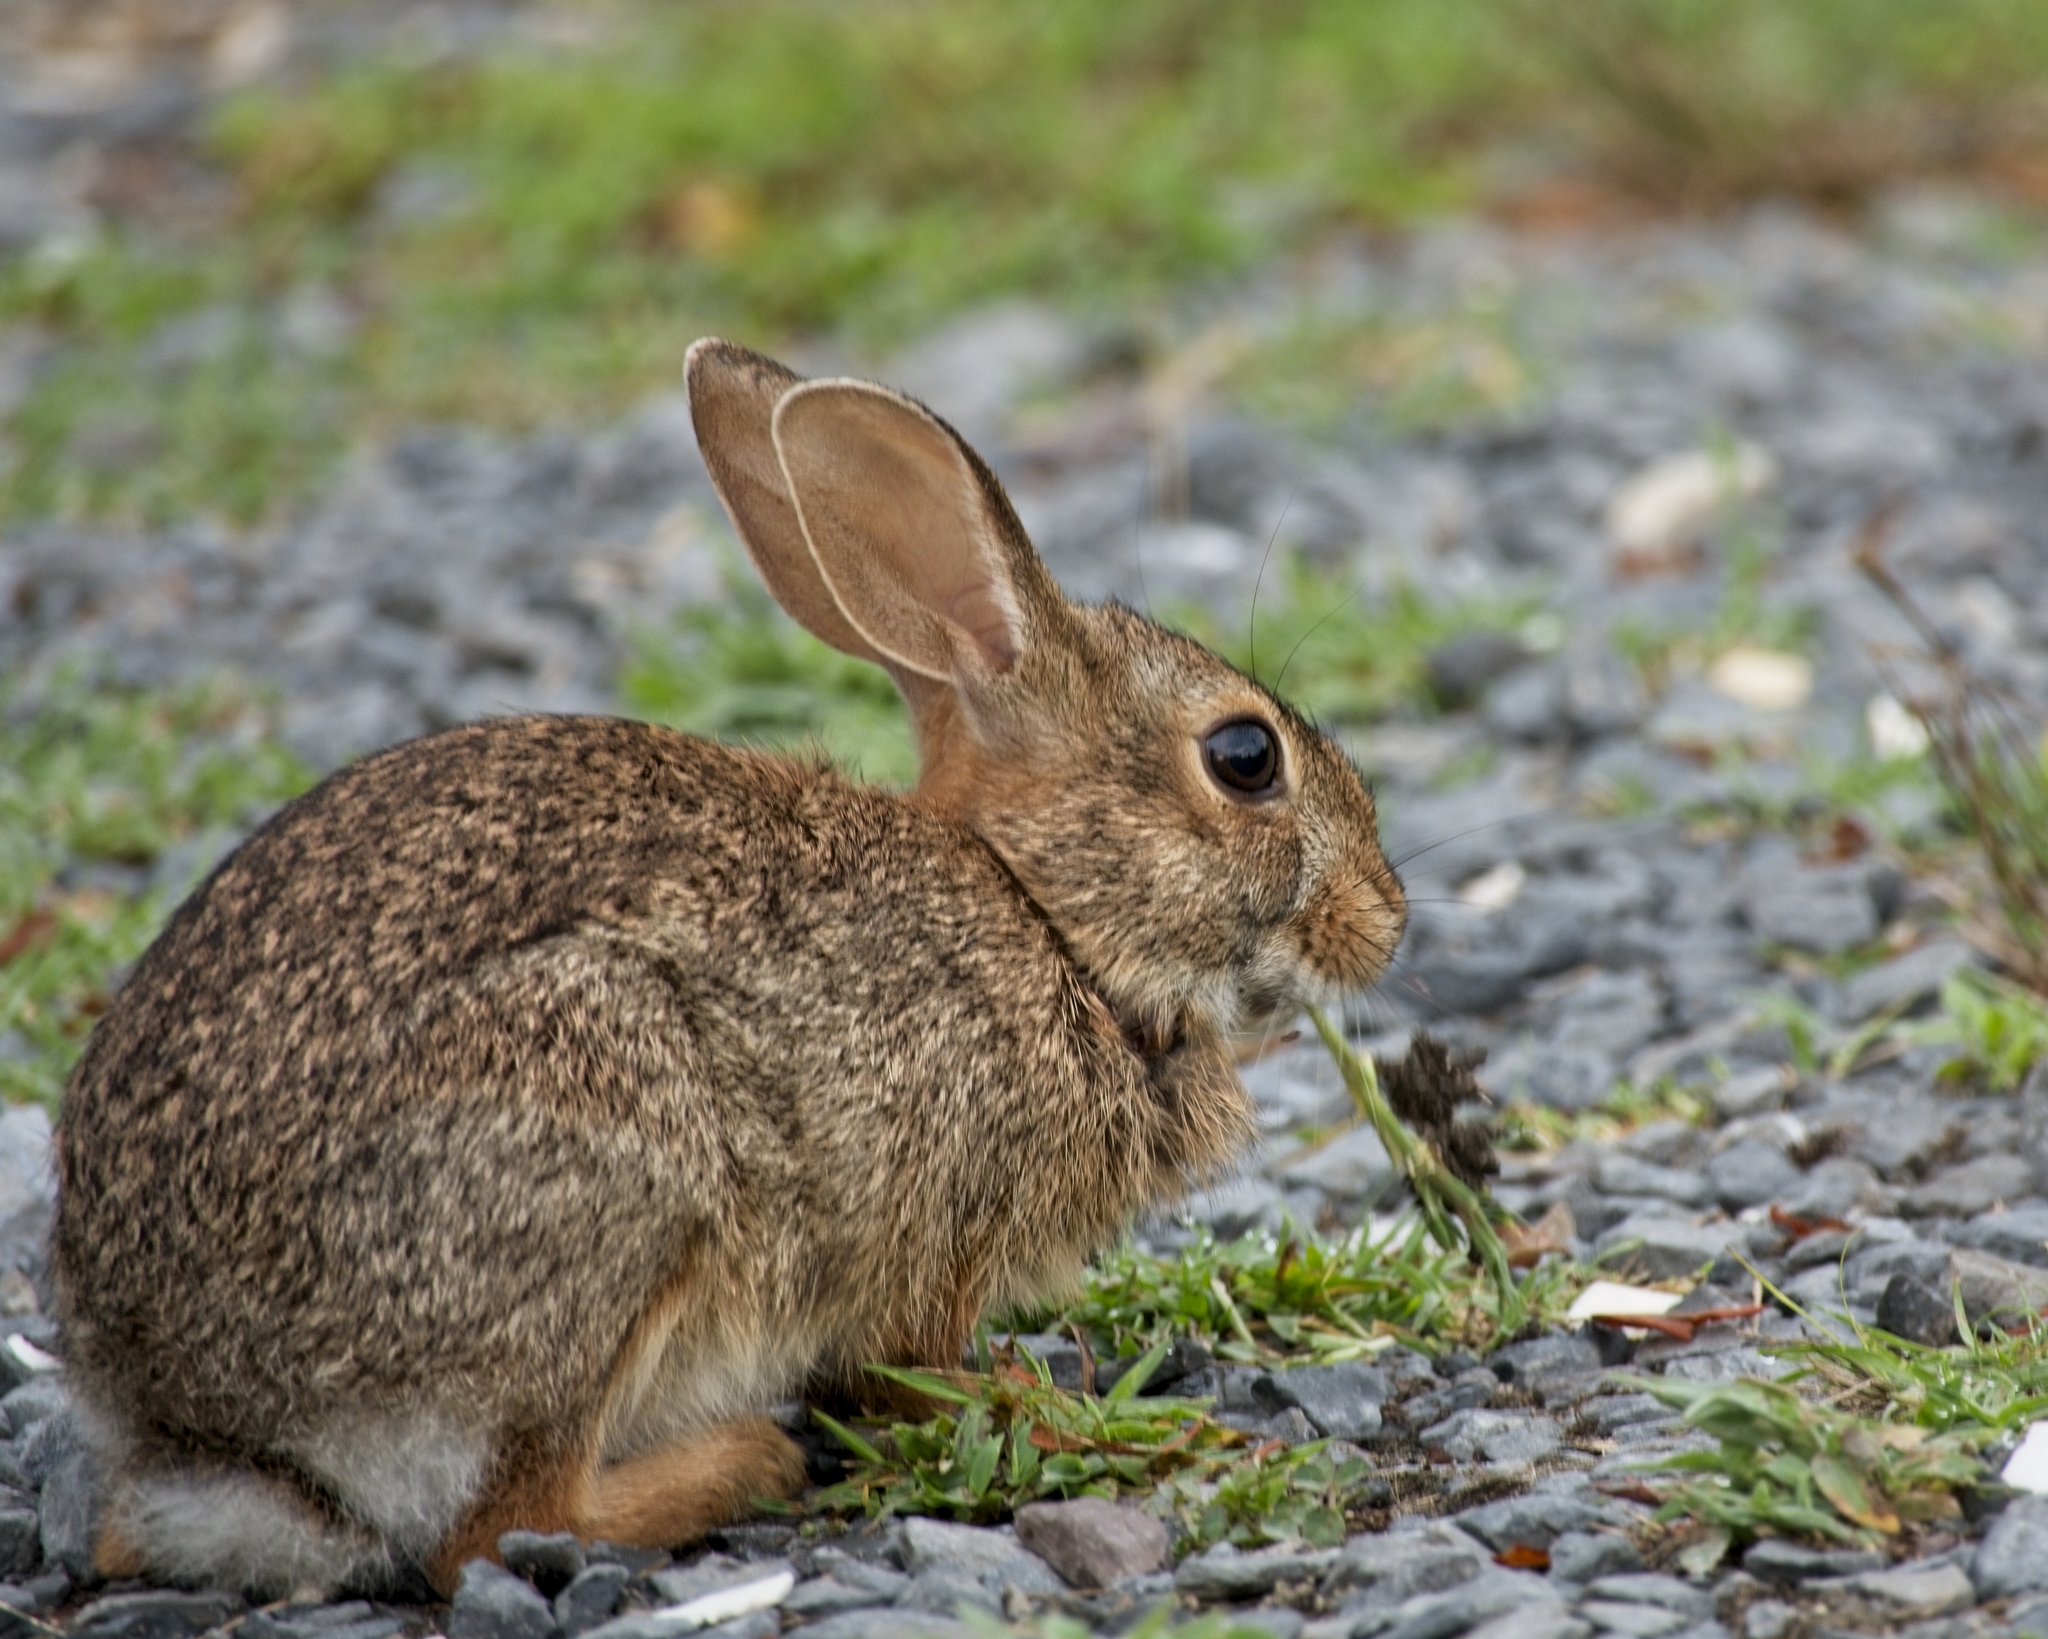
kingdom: Animalia
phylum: Chordata
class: Mammalia
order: Lagomorpha
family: Leporidae
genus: Sylvilagus
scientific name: Sylvilagus floridanus
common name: Eastern cottontail
